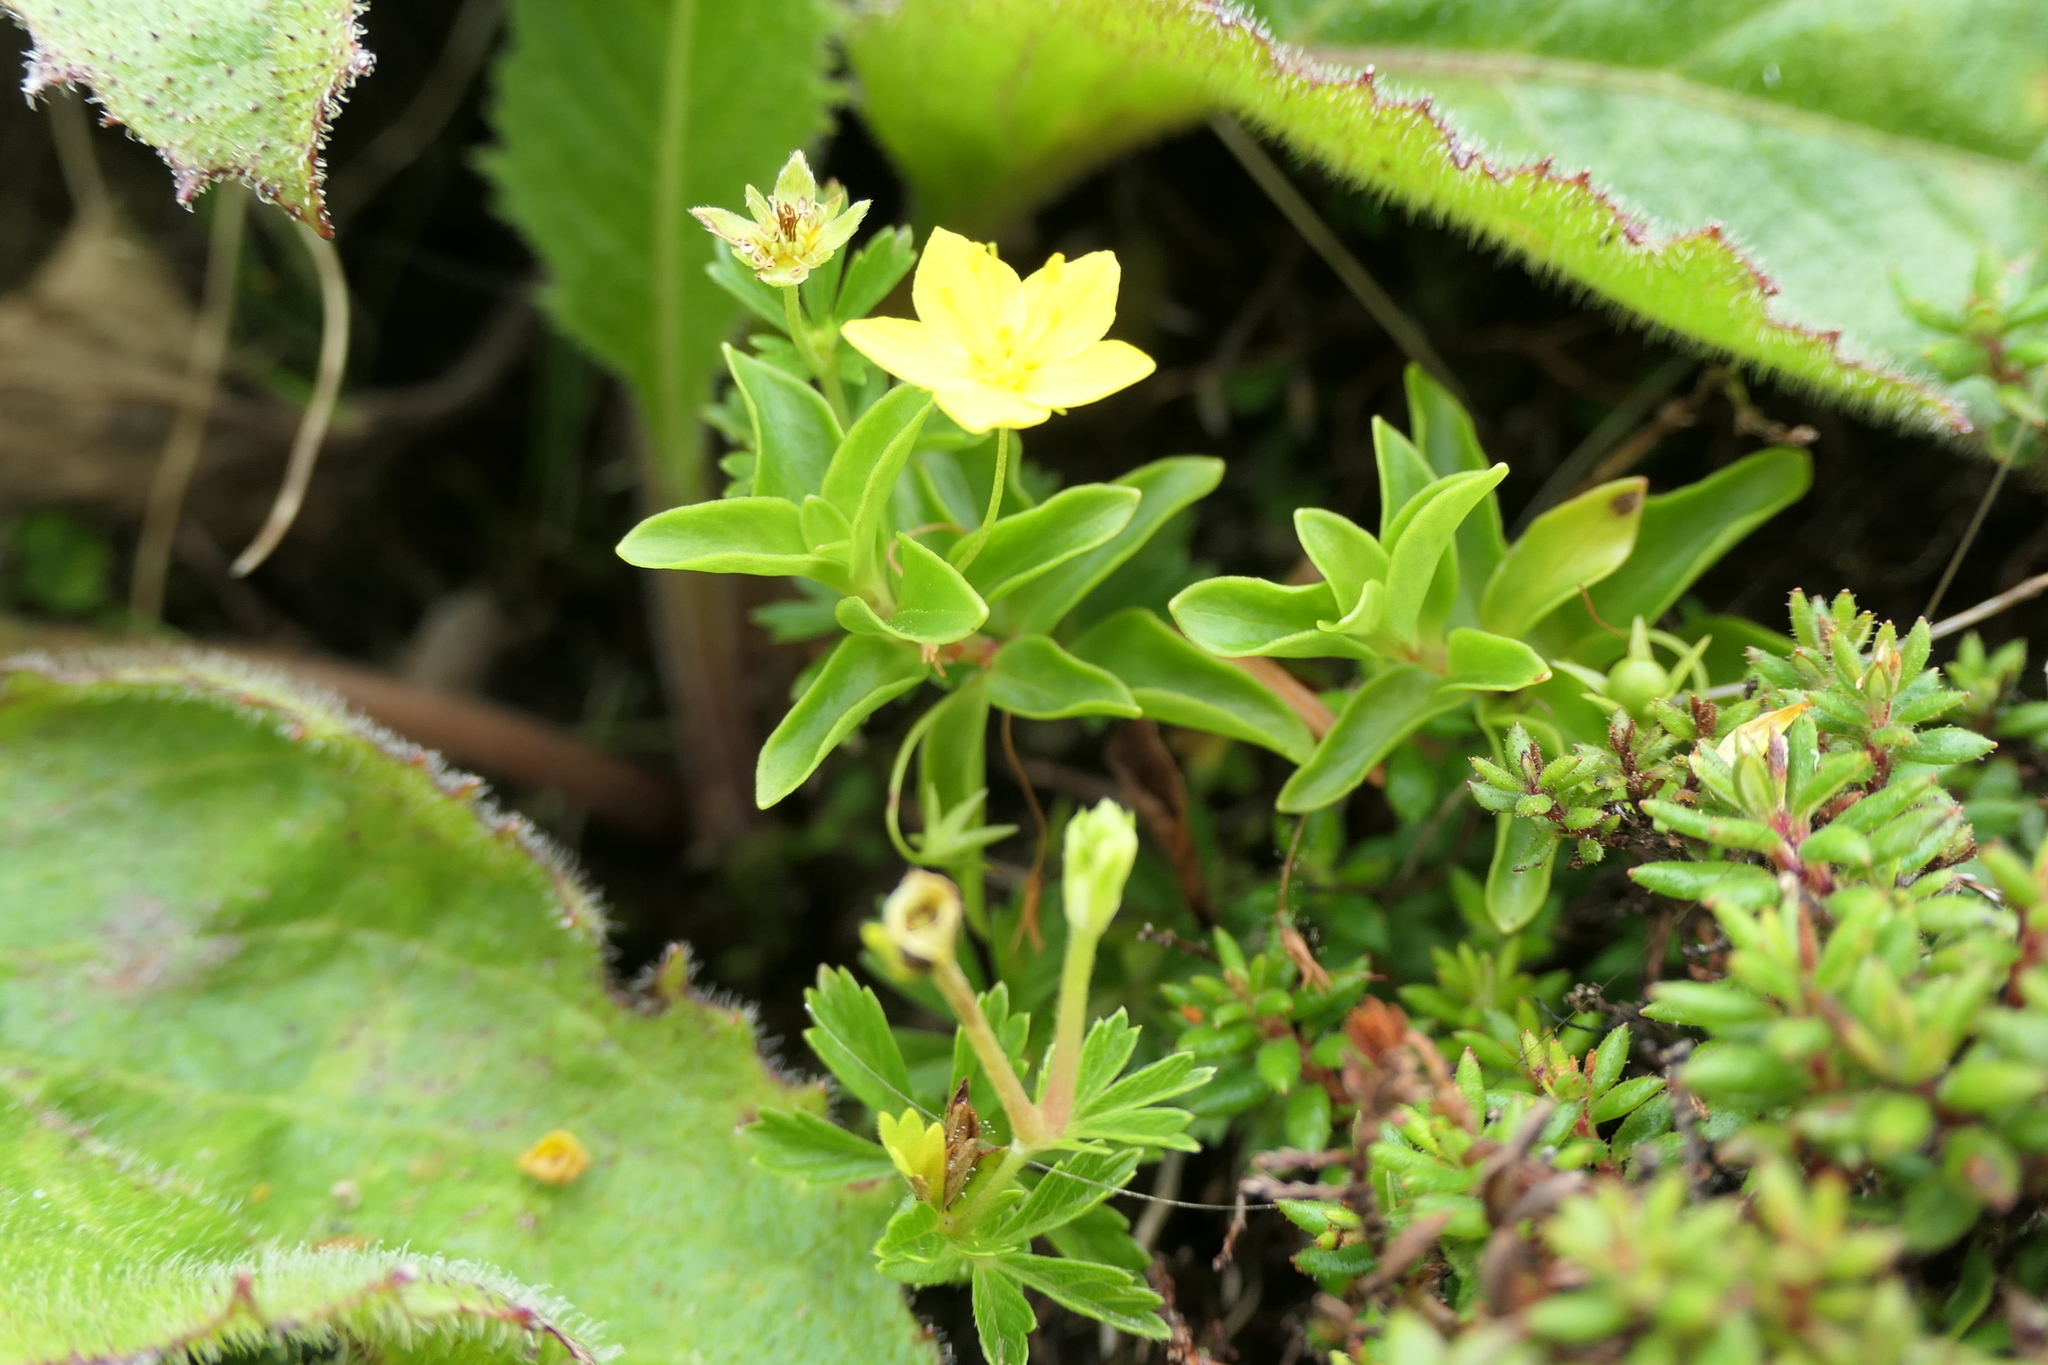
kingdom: Plantae
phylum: Tracheophyta
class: Magnoliopsida
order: Ericales
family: Primulaceae
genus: Lysimachia
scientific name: Lysimachia azorica
